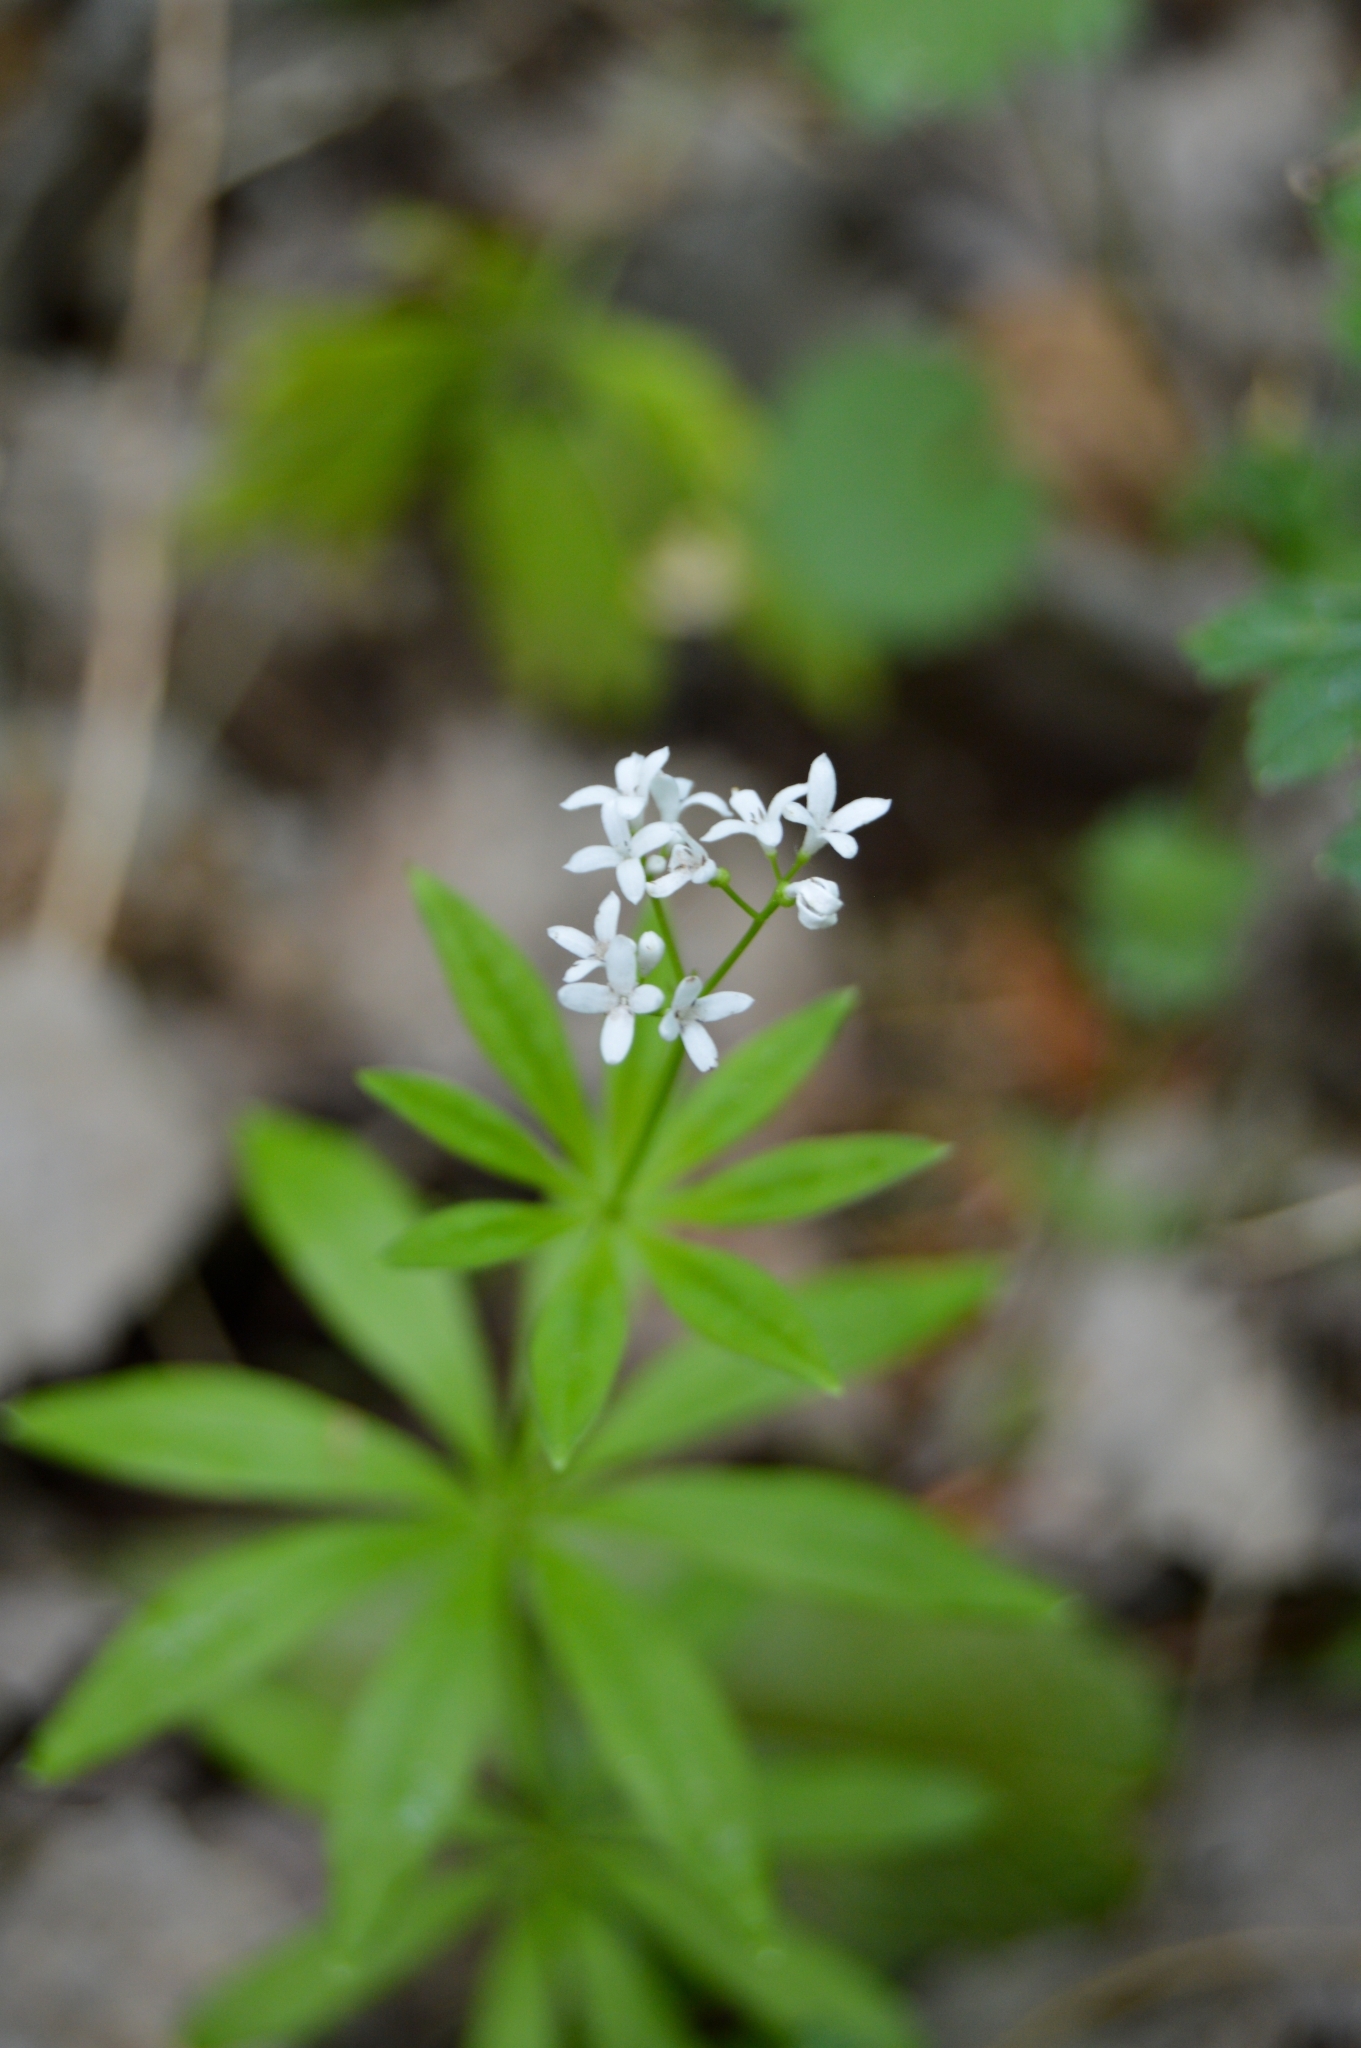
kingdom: Plantae
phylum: Tracheophyta
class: Magnoliopsida
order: Gentianales
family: Rubiaceae
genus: Galium
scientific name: Galium odoratum
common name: Sweet woodruff
